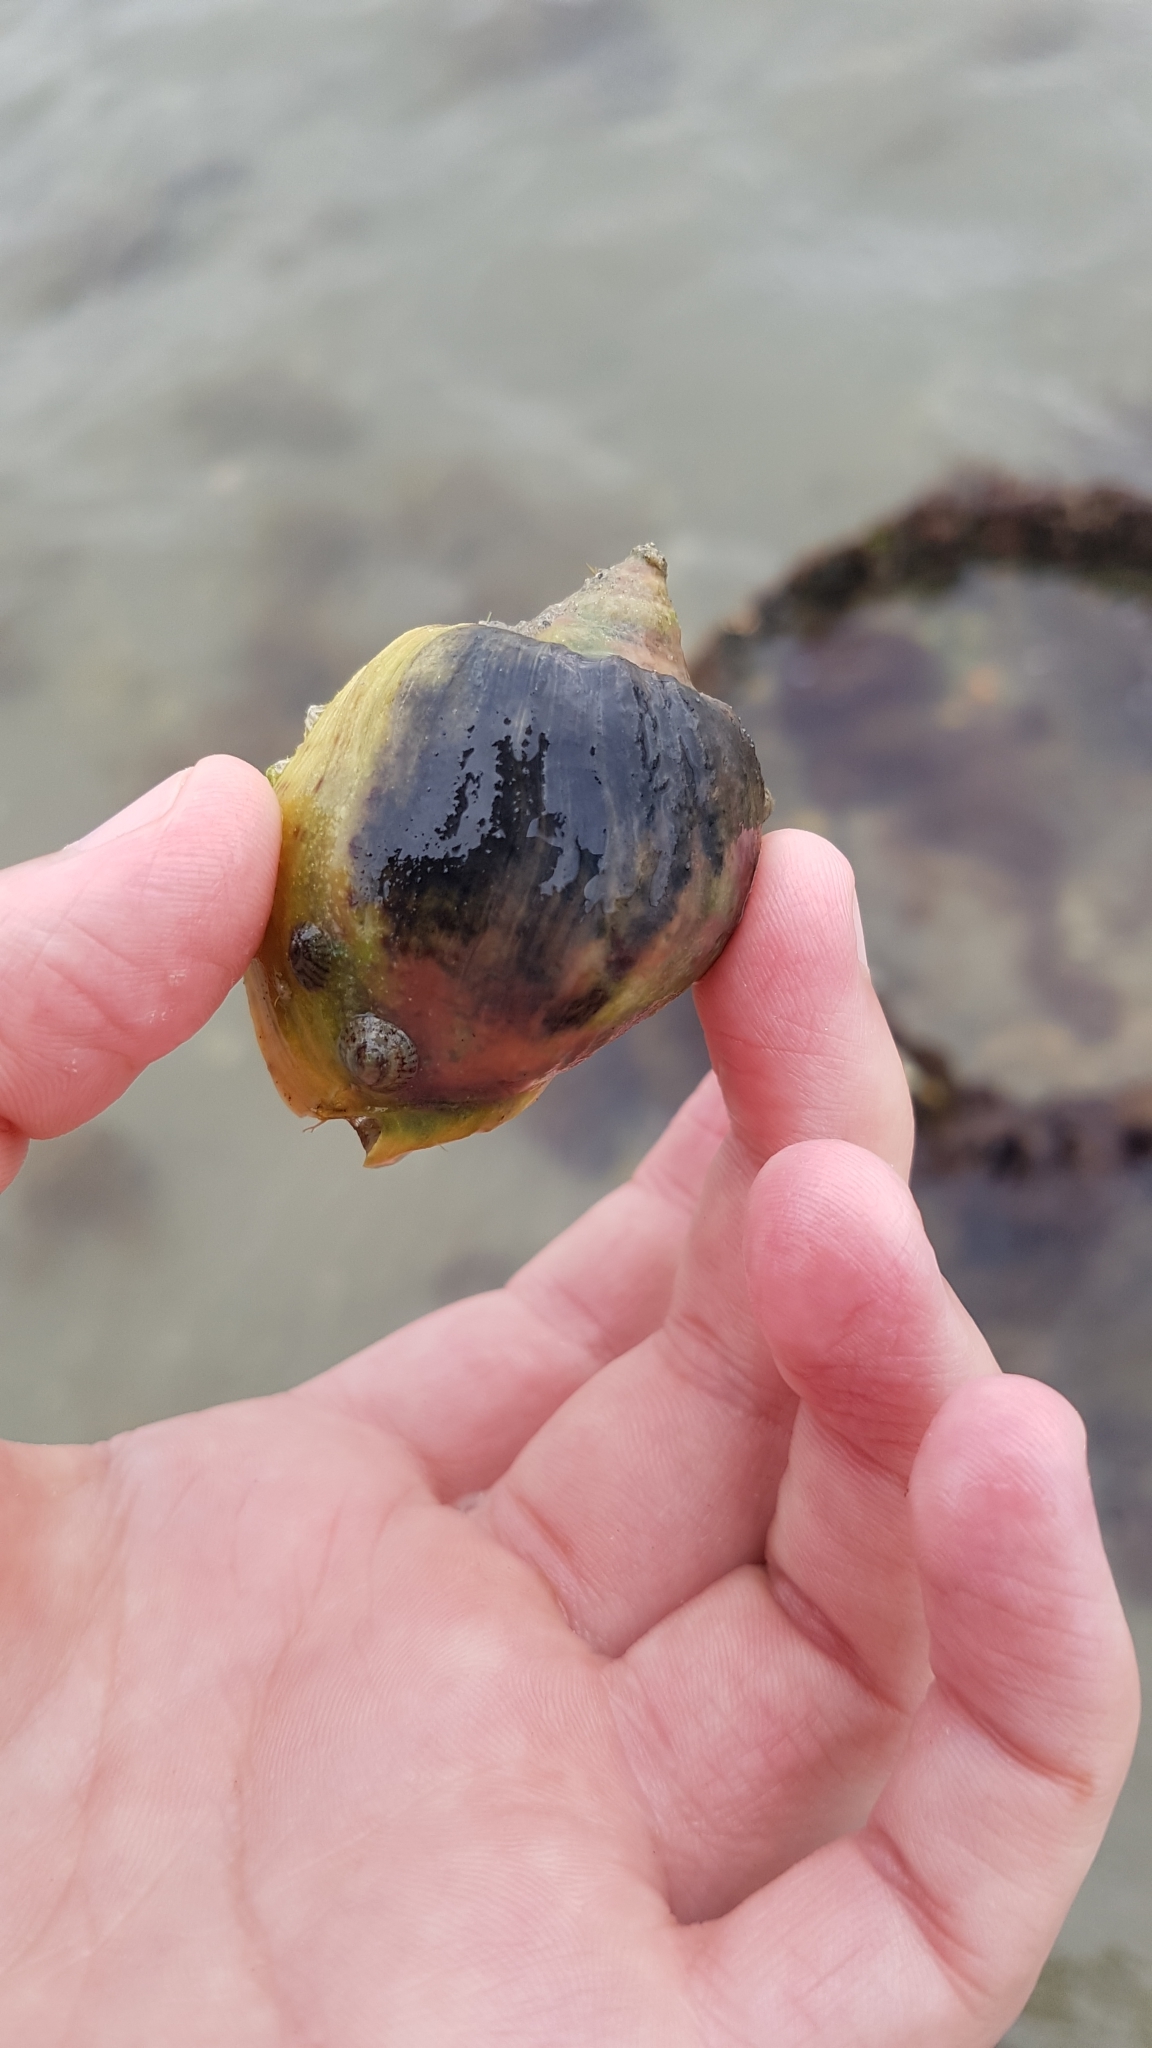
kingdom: Animalia
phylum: Mollusca
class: Gastropoda
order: Neogastropoda
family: Cominellidae
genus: Cominella
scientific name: Cominella adspersa
